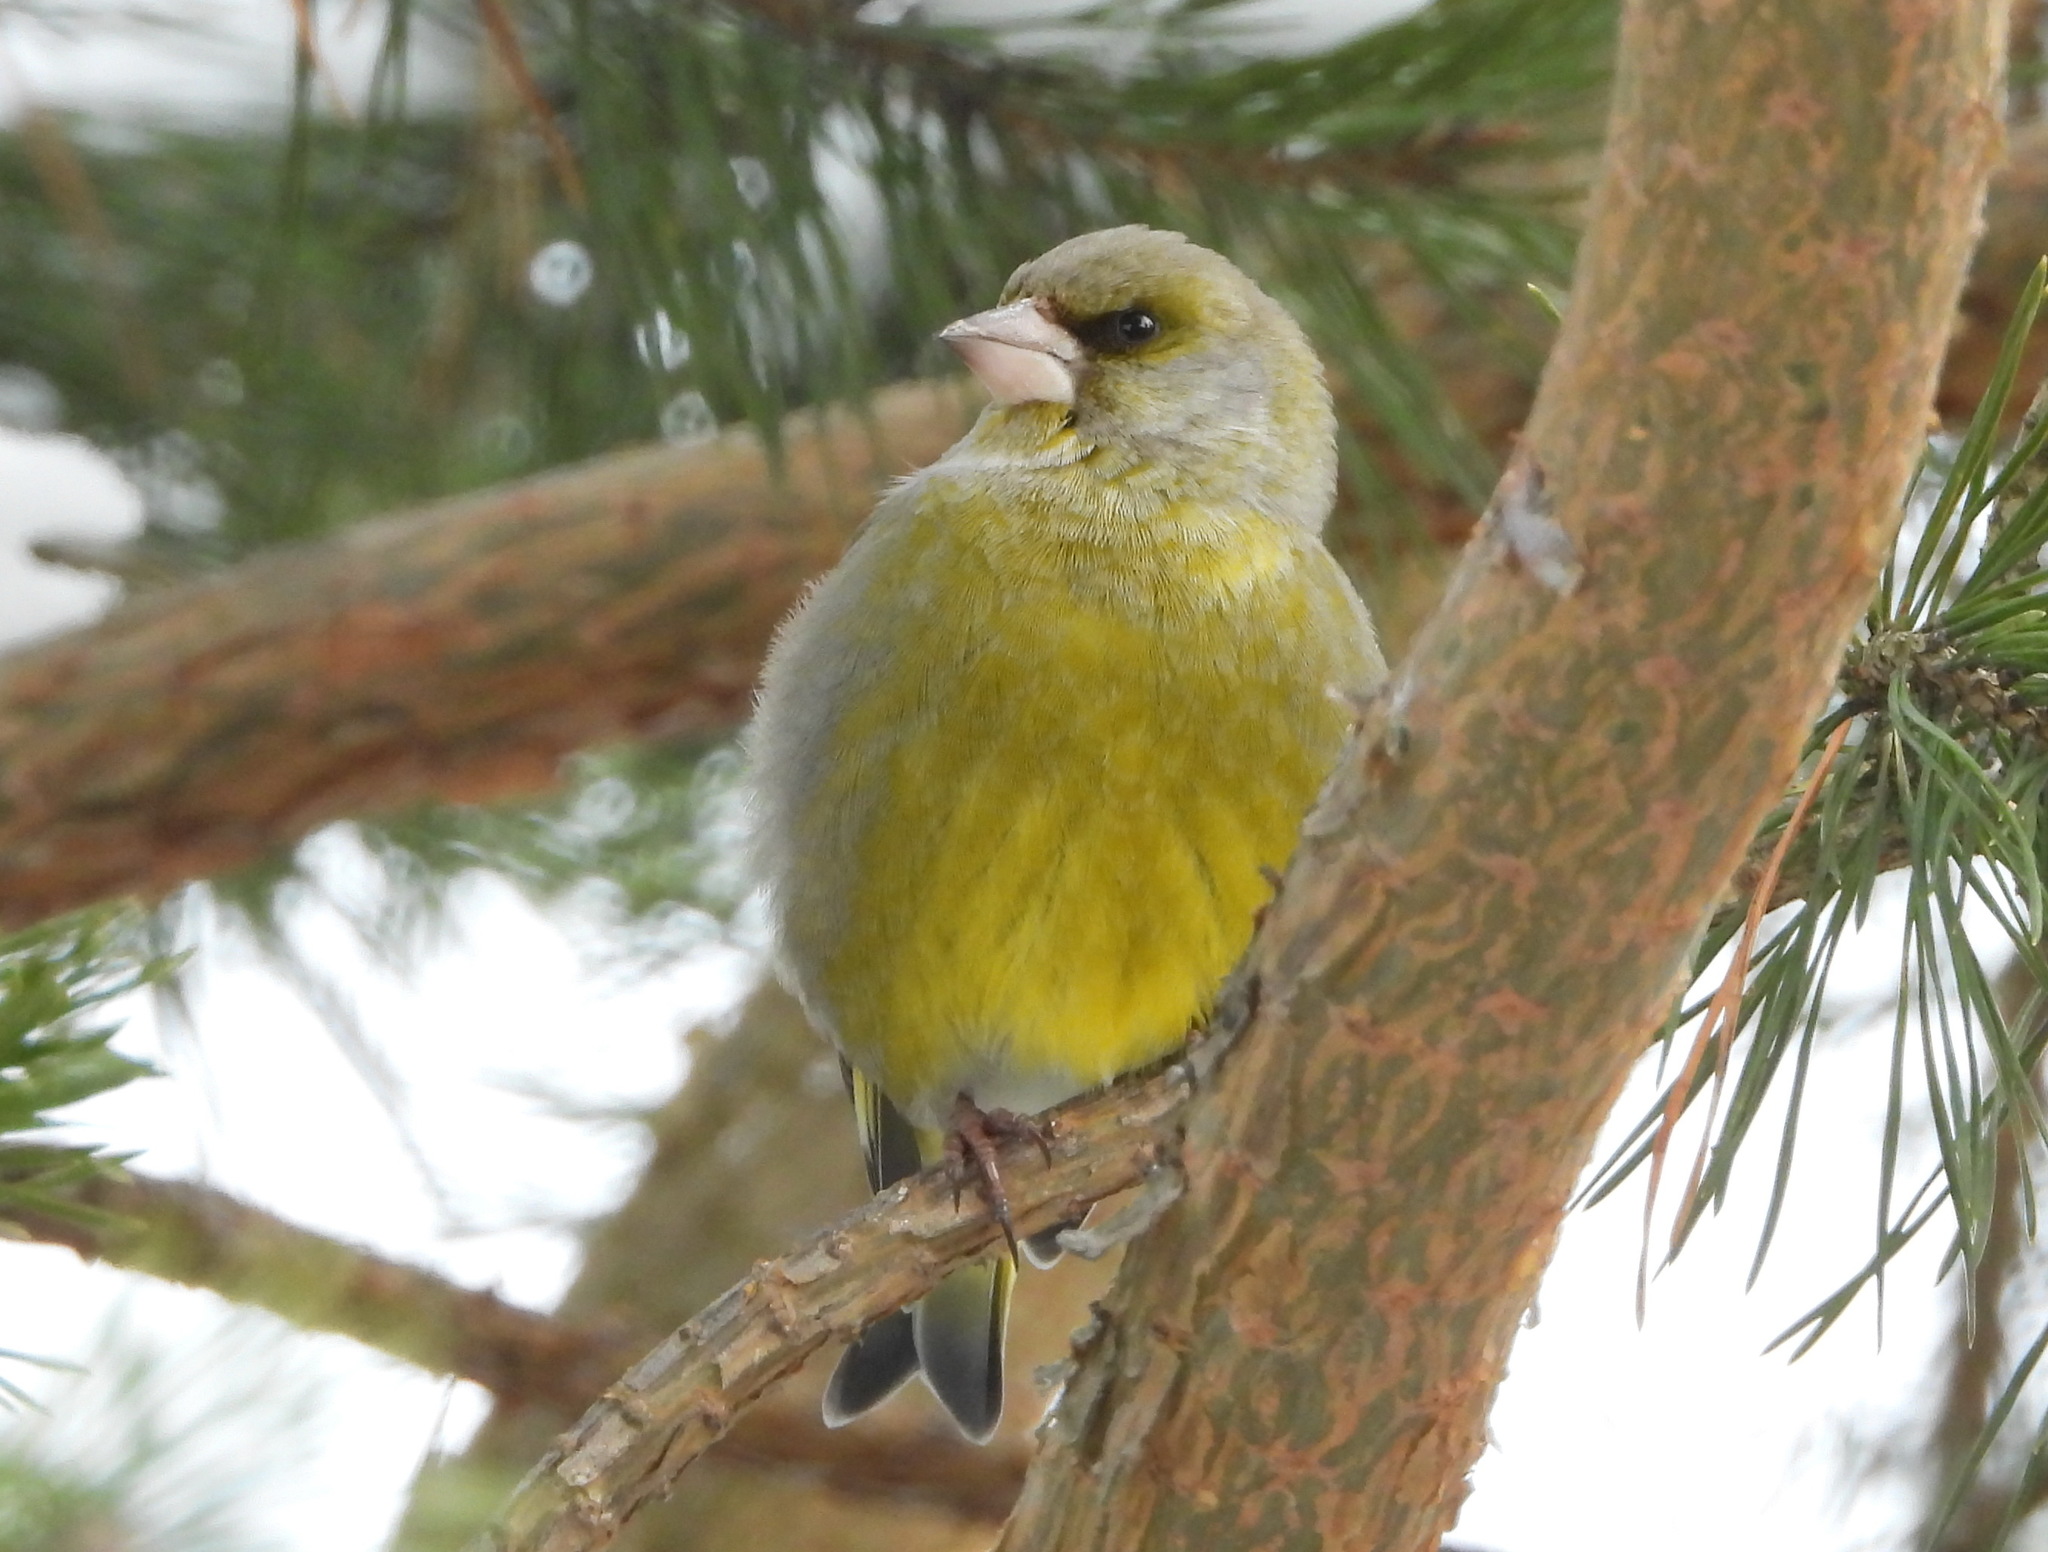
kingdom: Plantae
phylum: Tracheophyta
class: Liliopsida
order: Poales
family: Poaceae
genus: Chloris
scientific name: Chloris chloris
